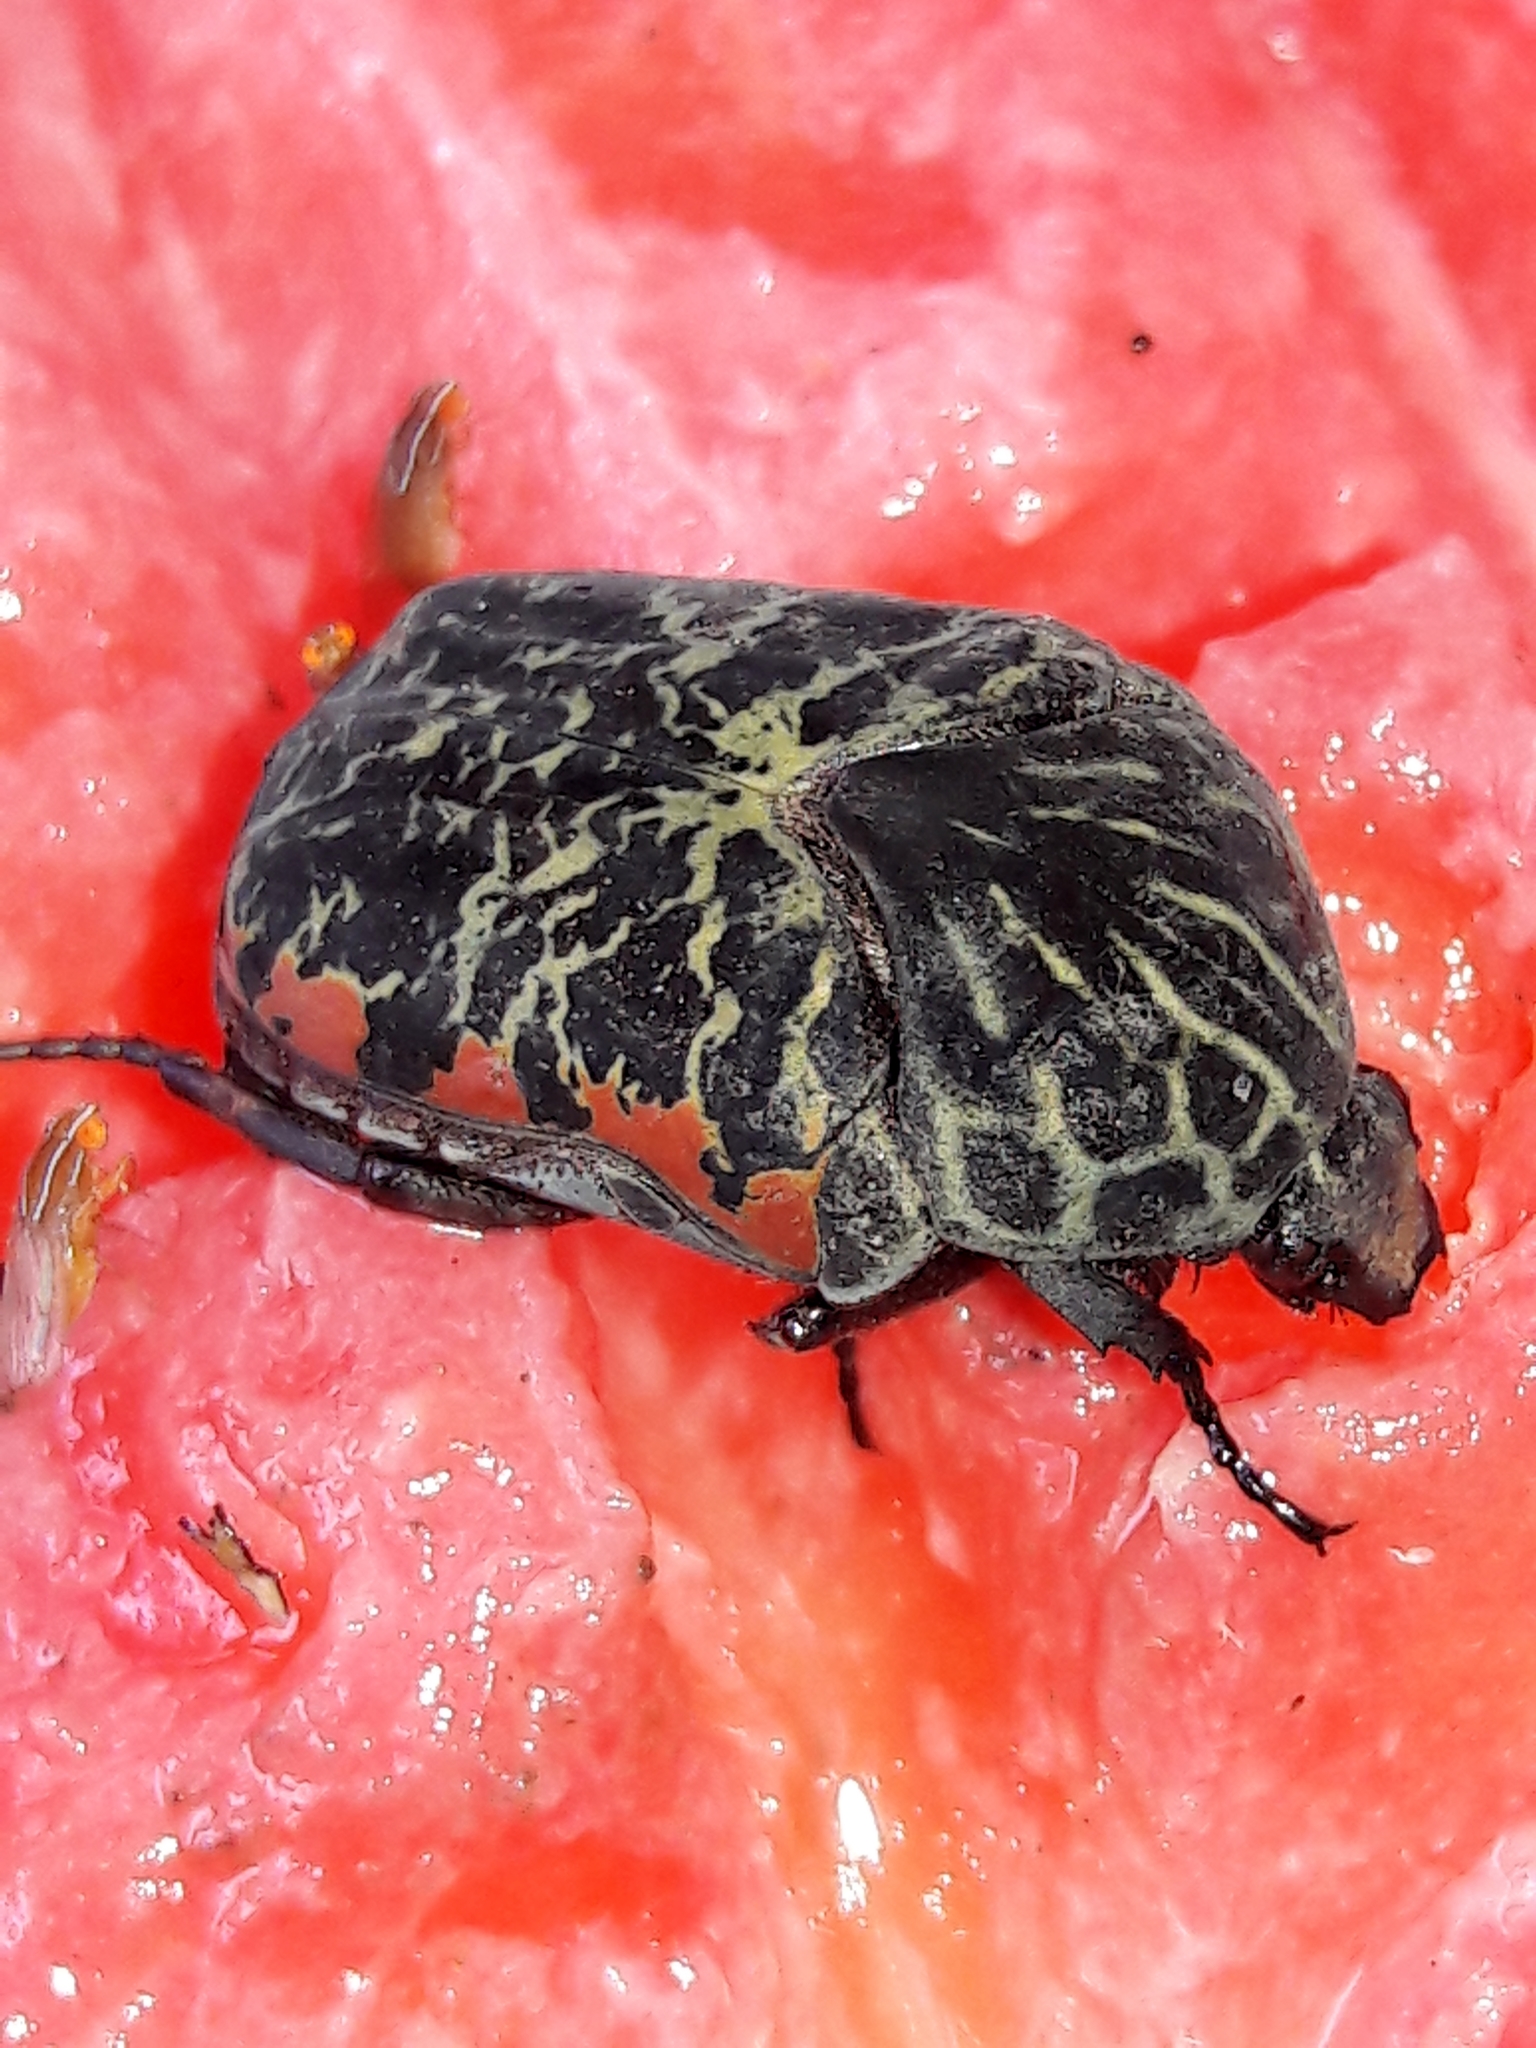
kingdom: Animalia
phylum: Arthropoda
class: Insecta
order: Coleoptera
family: Scarabaeidae
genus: Gymnetis
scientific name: Gymnetis rufilatris
